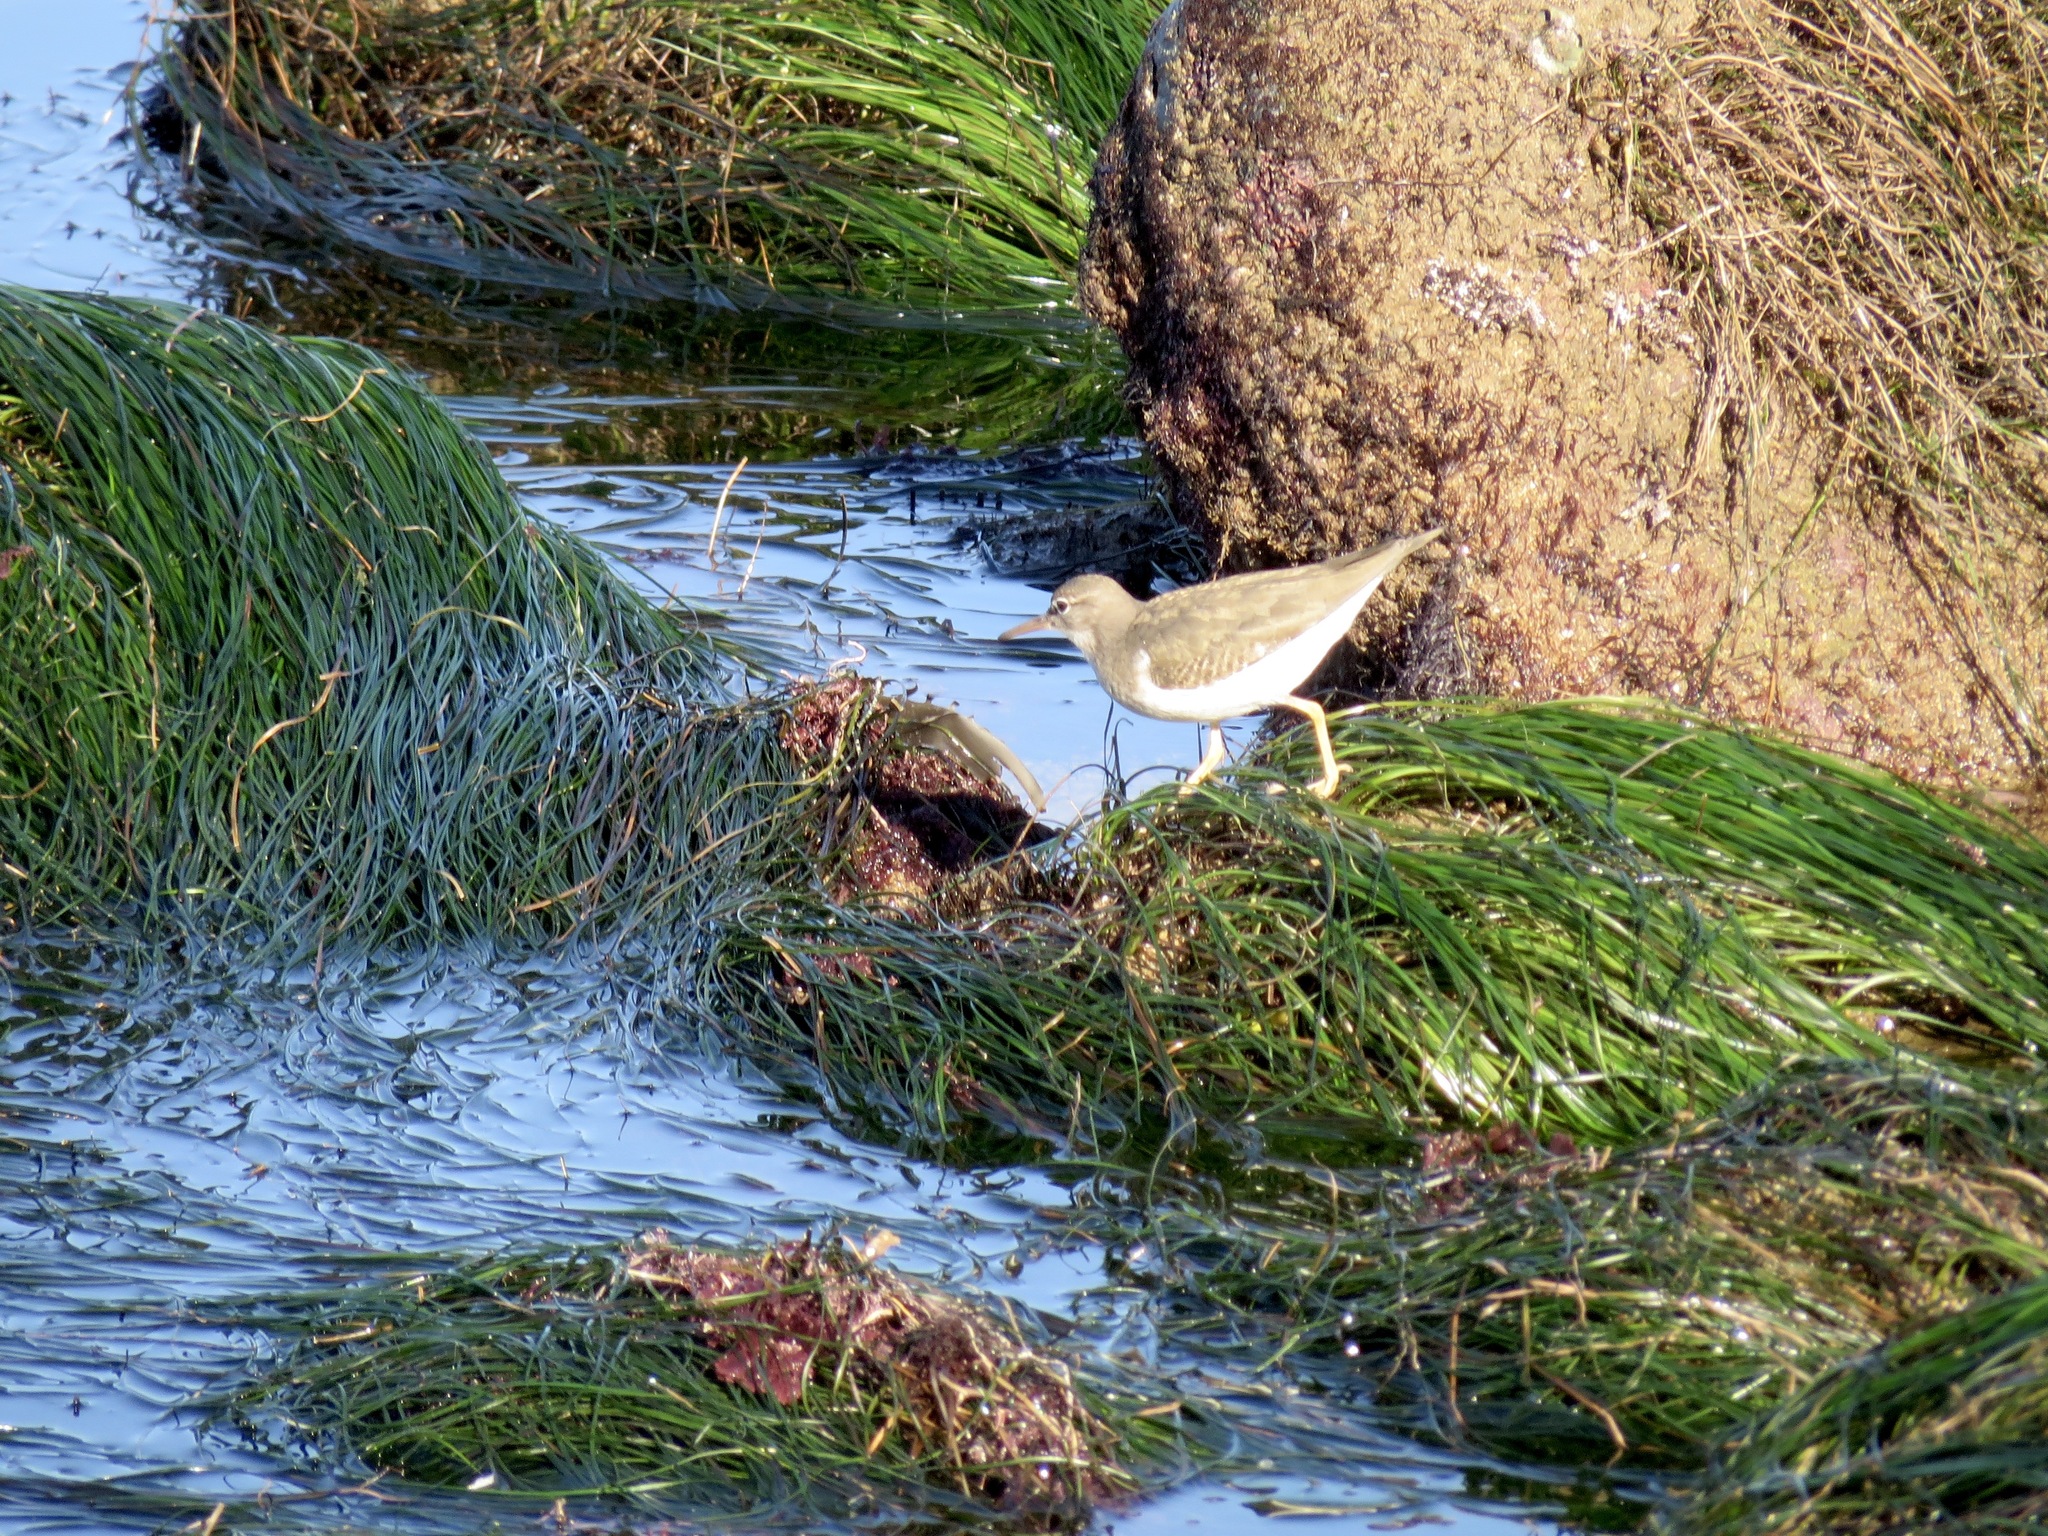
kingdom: Animalia
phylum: Chordata
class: Aves
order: Charadriiformes
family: Scolopacidae
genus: Actitis
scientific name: Actitis macularius
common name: Spotted sandpiper
